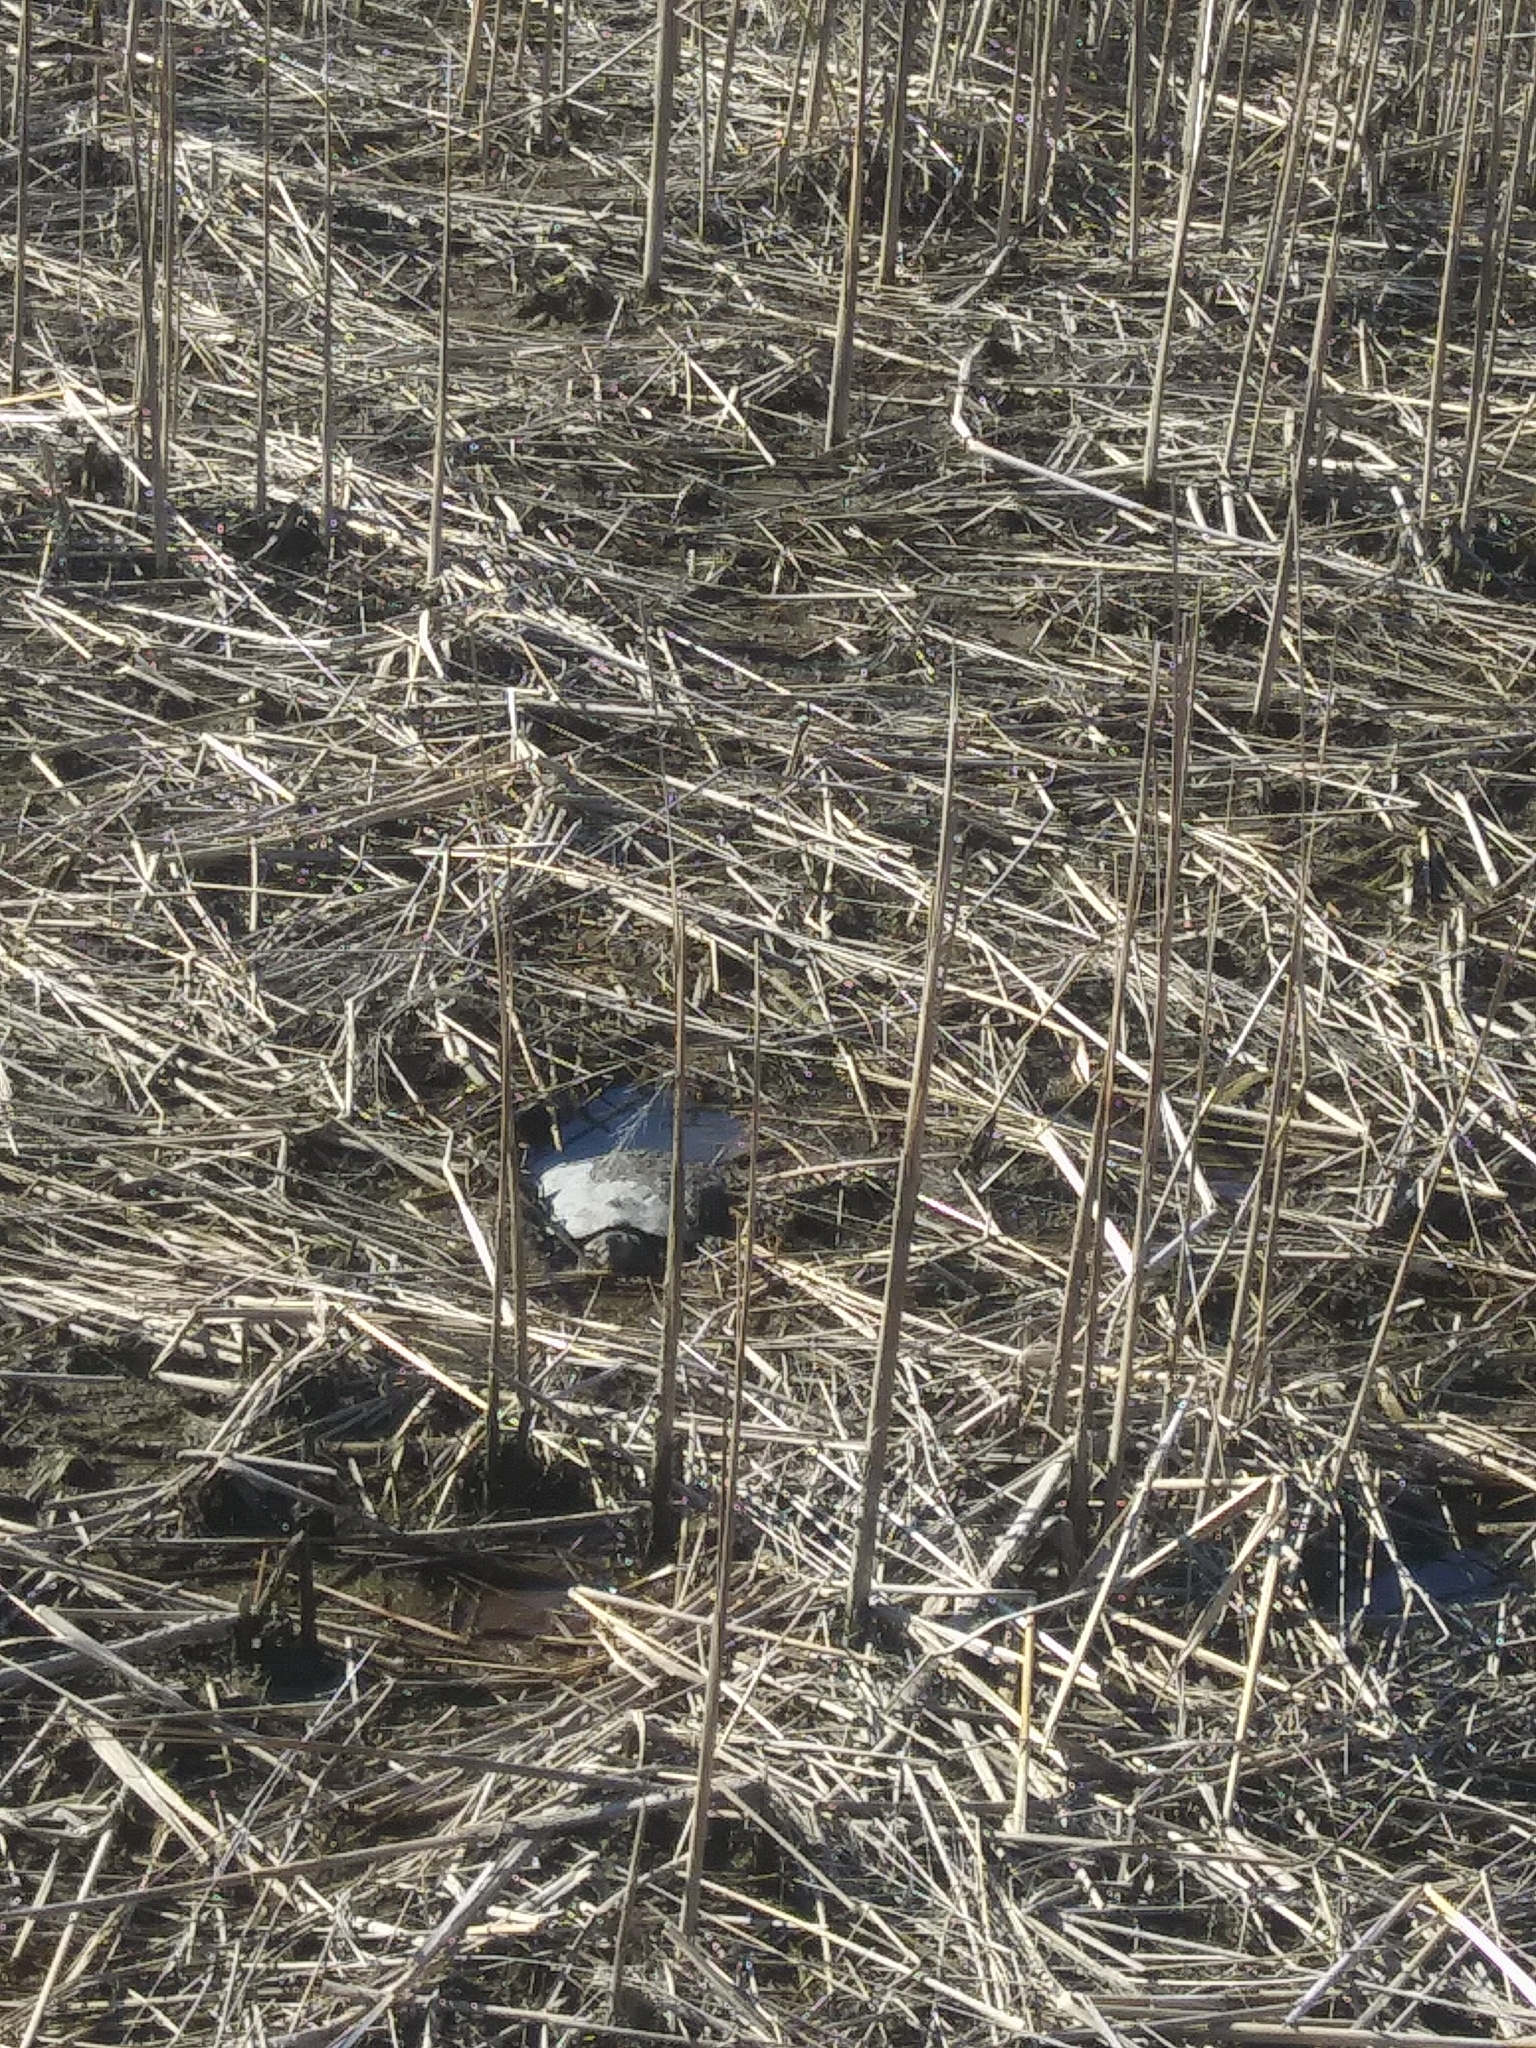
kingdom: Animalia
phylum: Chordata
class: Testudines
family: Chelydridae
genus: Chelydra
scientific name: Chelydra serpentina
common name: Common snapping turtle
